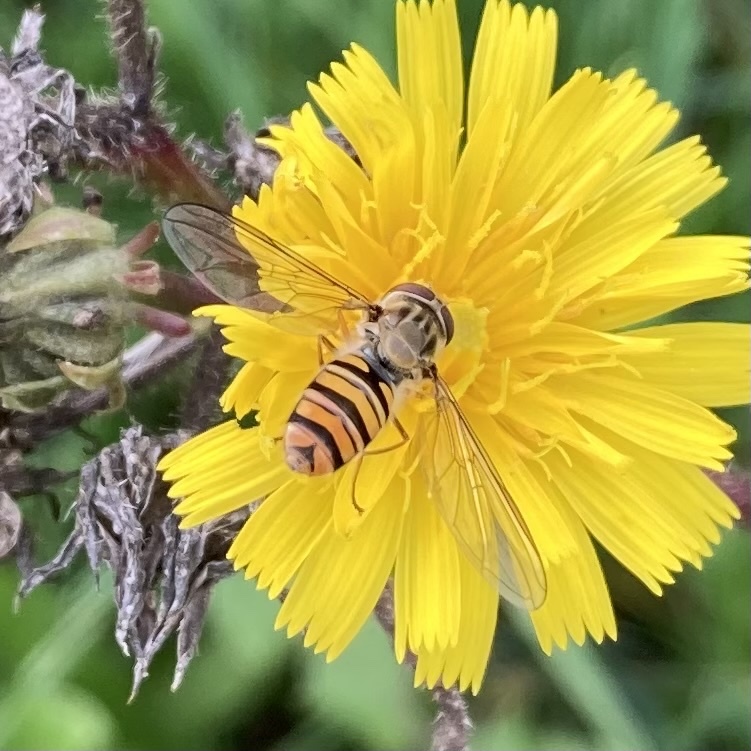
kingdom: Animalia
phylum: Arthropoda
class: Insecta
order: Diptera
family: Syrphidae
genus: Episyrphus
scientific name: Episyrphus balteatus
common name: Marmalade hoverfly
